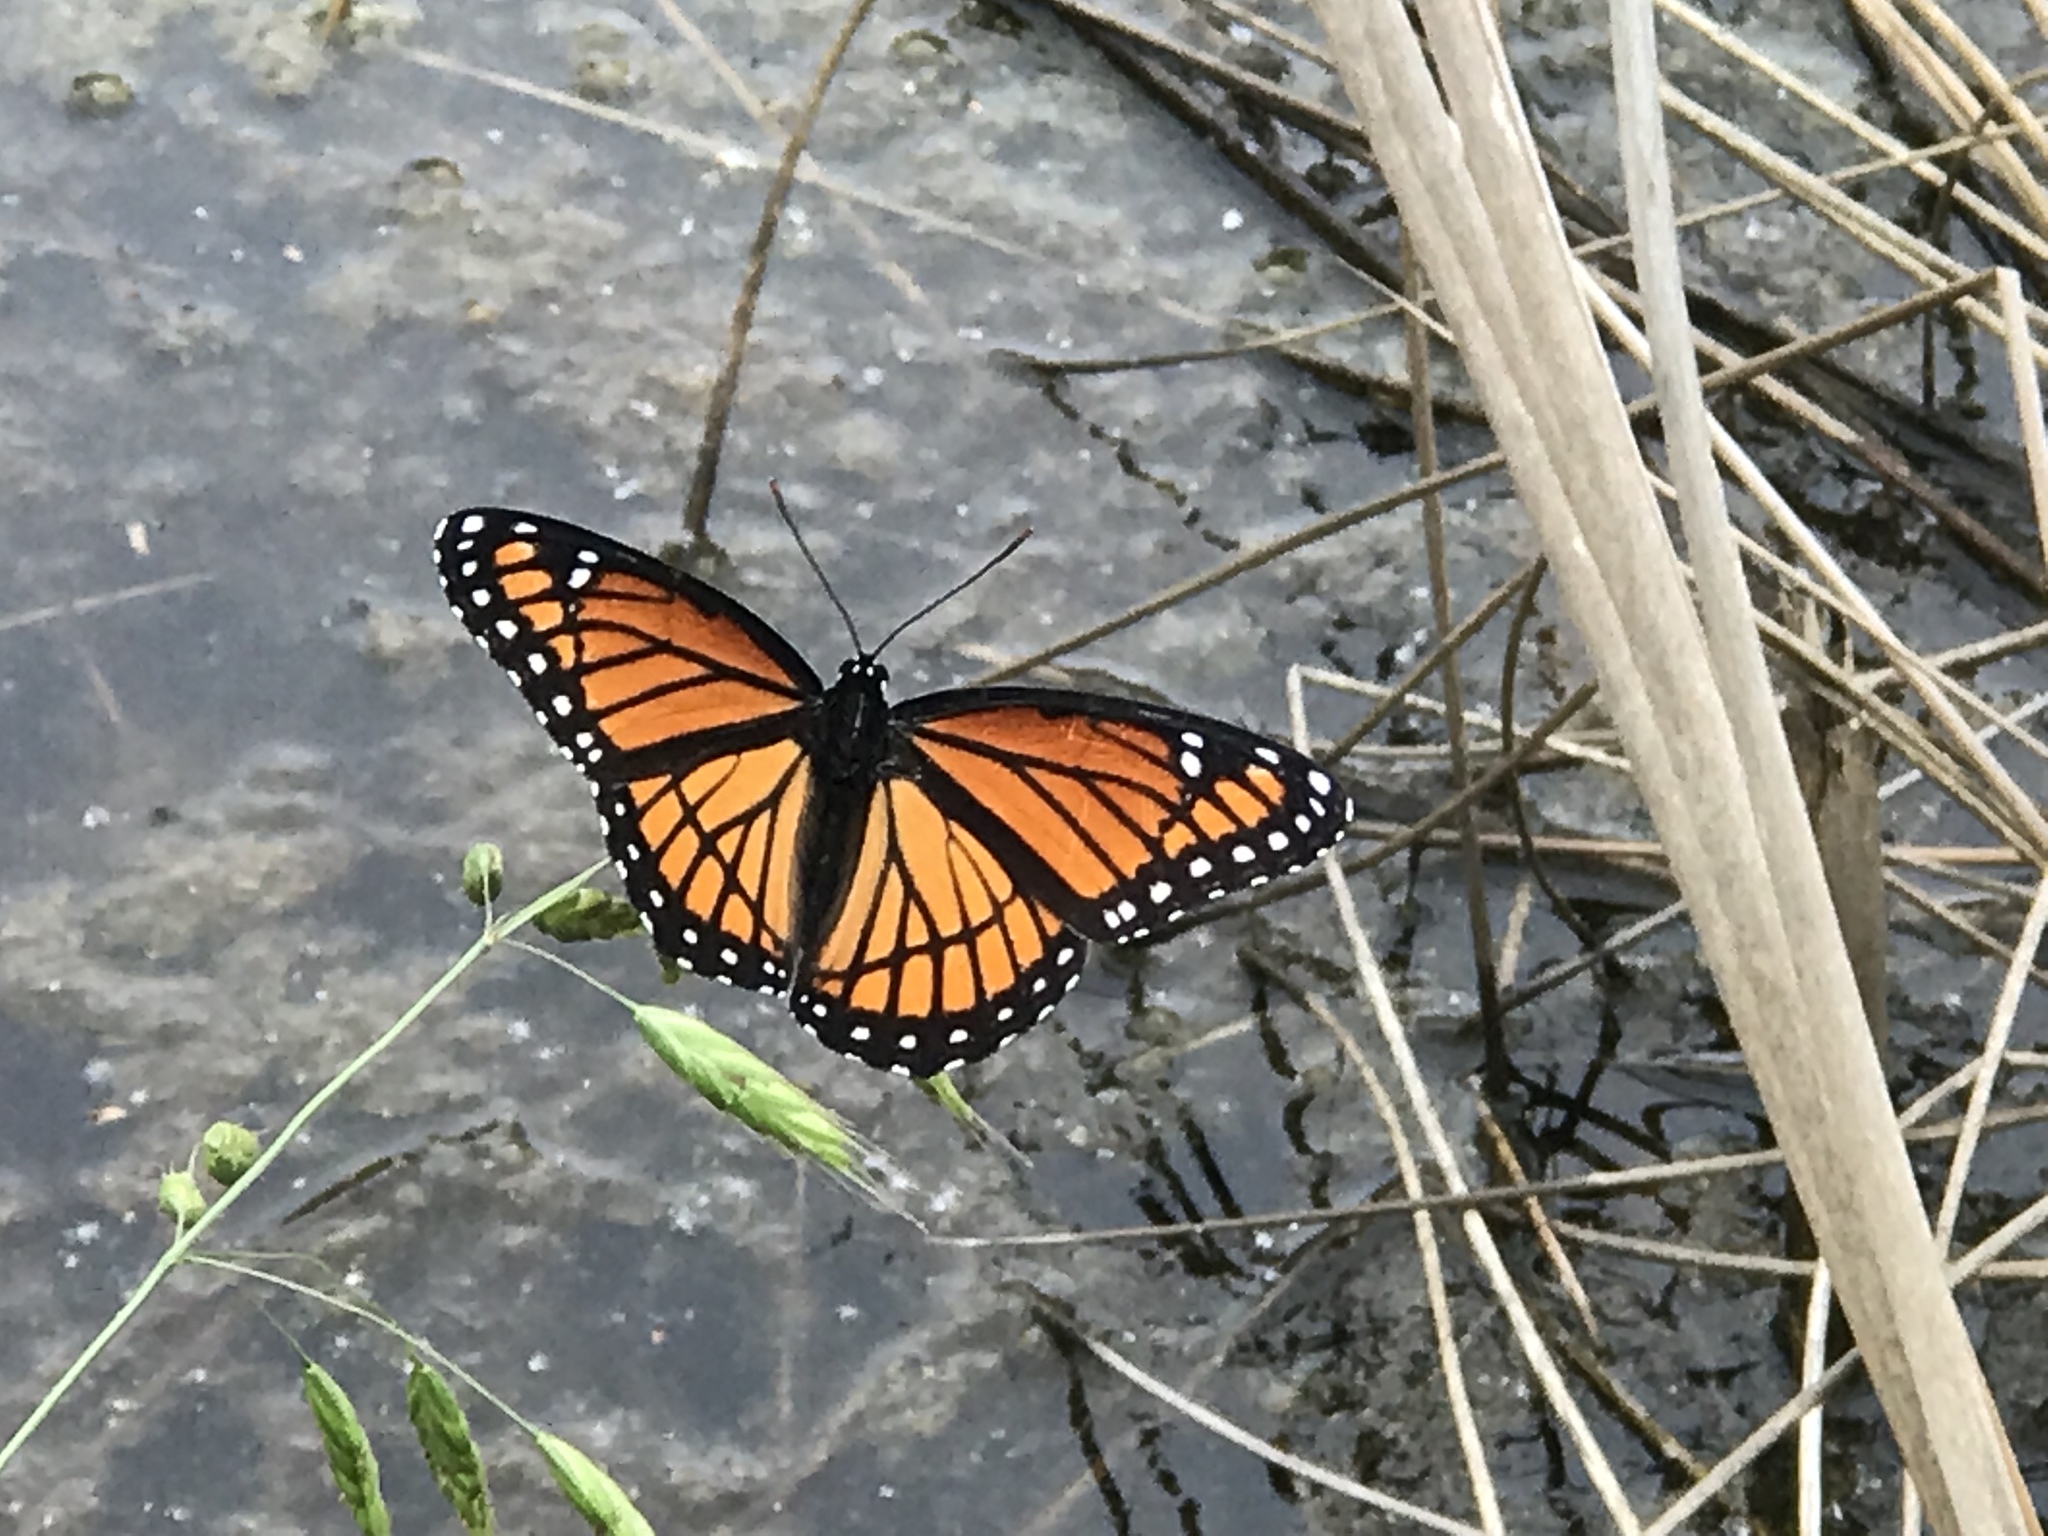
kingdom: Animalia
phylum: Arthropoda
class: Insecta
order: Lepidoptera
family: Nymphalidae
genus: Limenitis
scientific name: Limenitis archippus
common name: Viceroy
